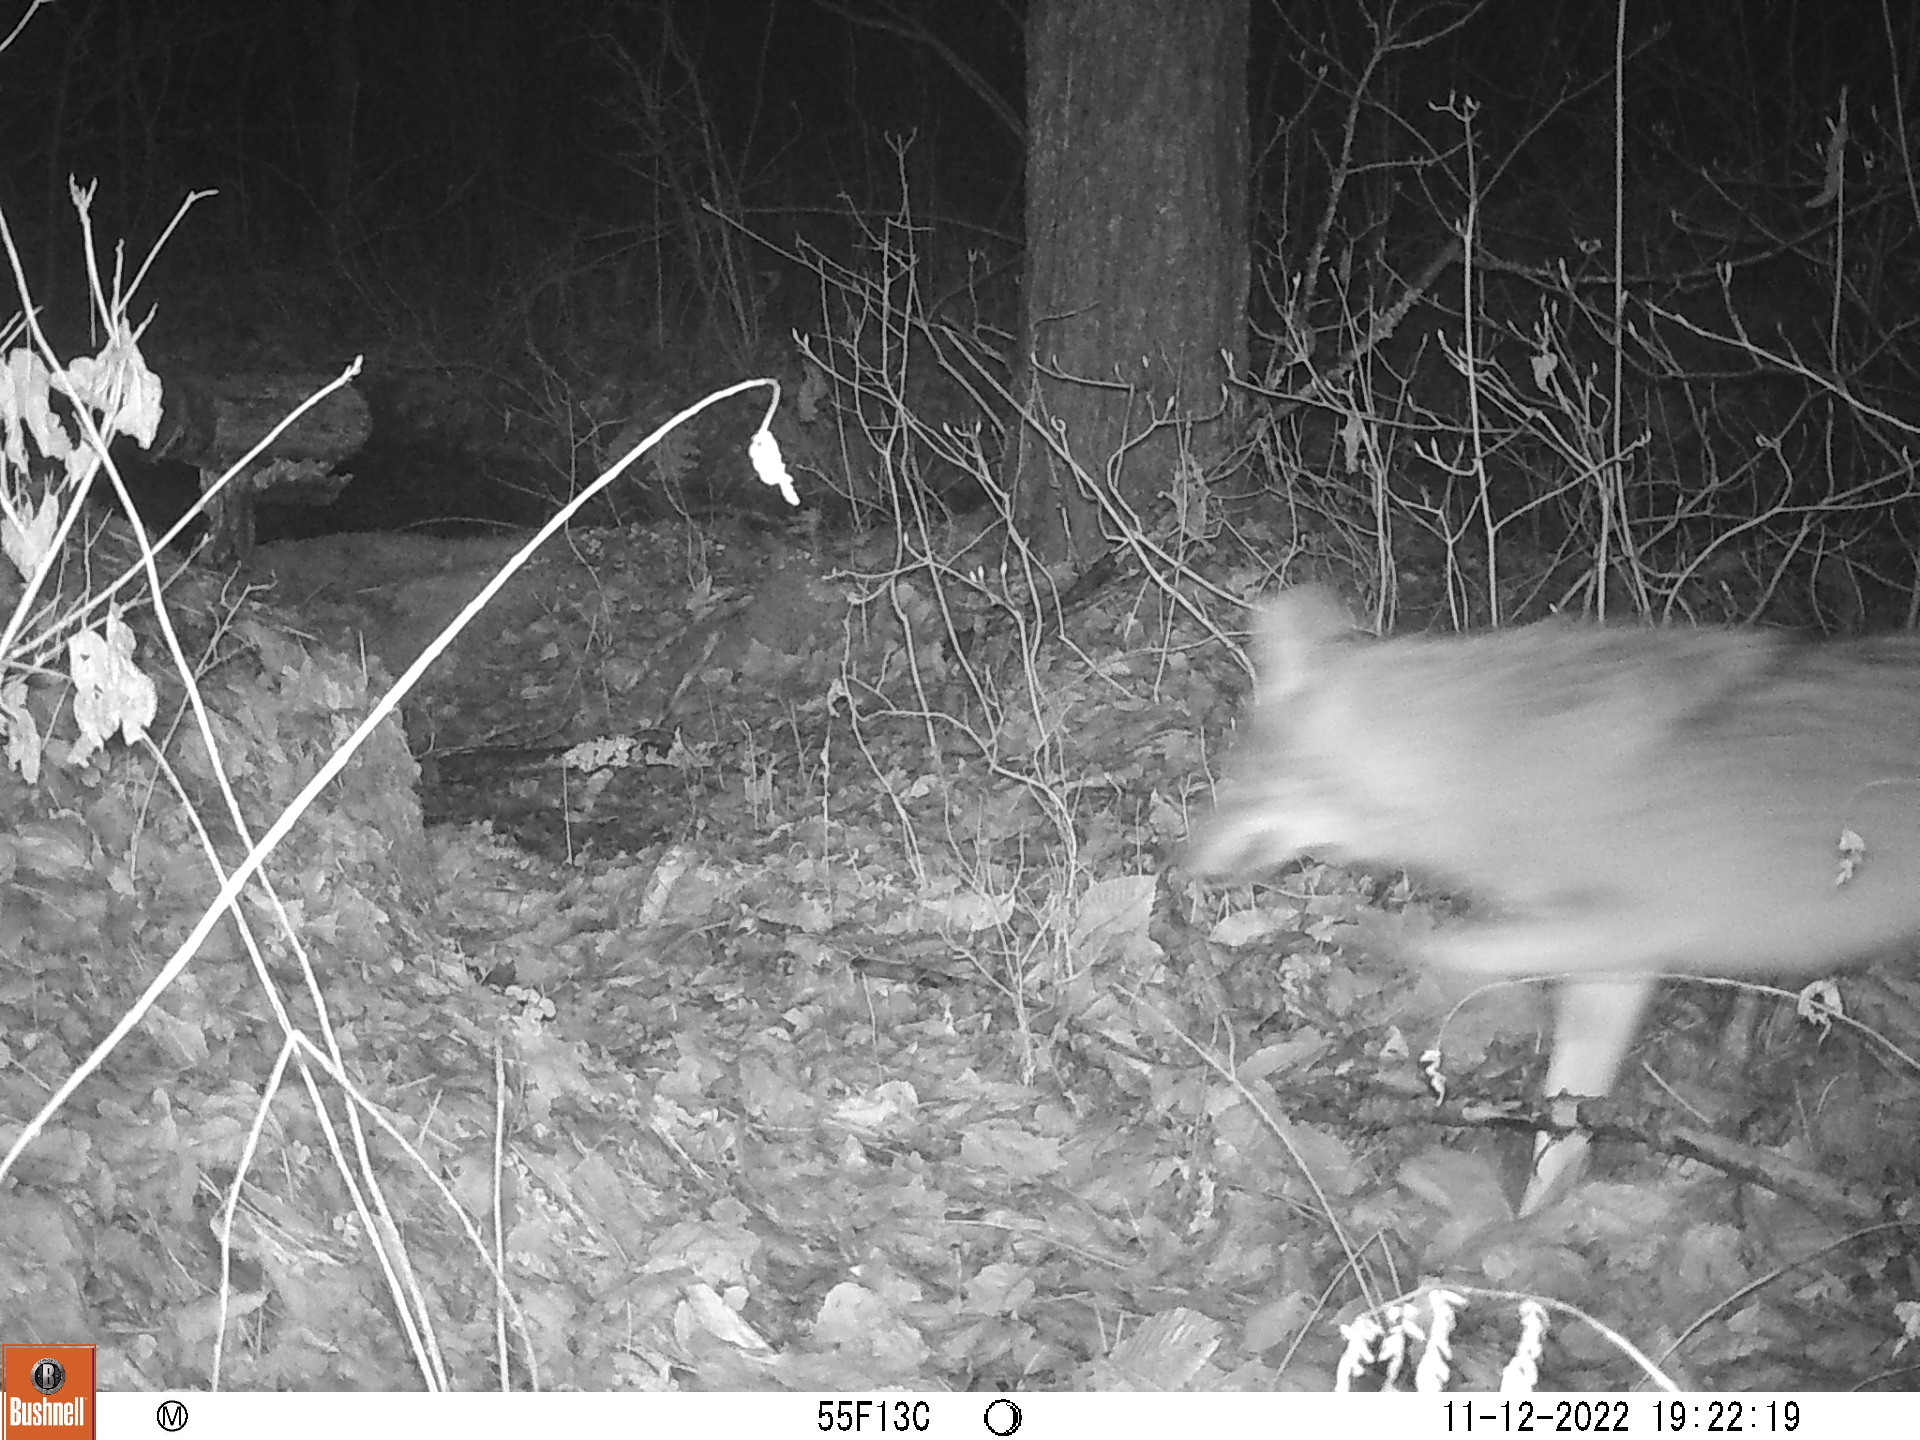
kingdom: Animalia
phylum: Chordata
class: Mammalia
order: Carnivora
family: Canidae
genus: Canis
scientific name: Canis latrans
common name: Coyote
